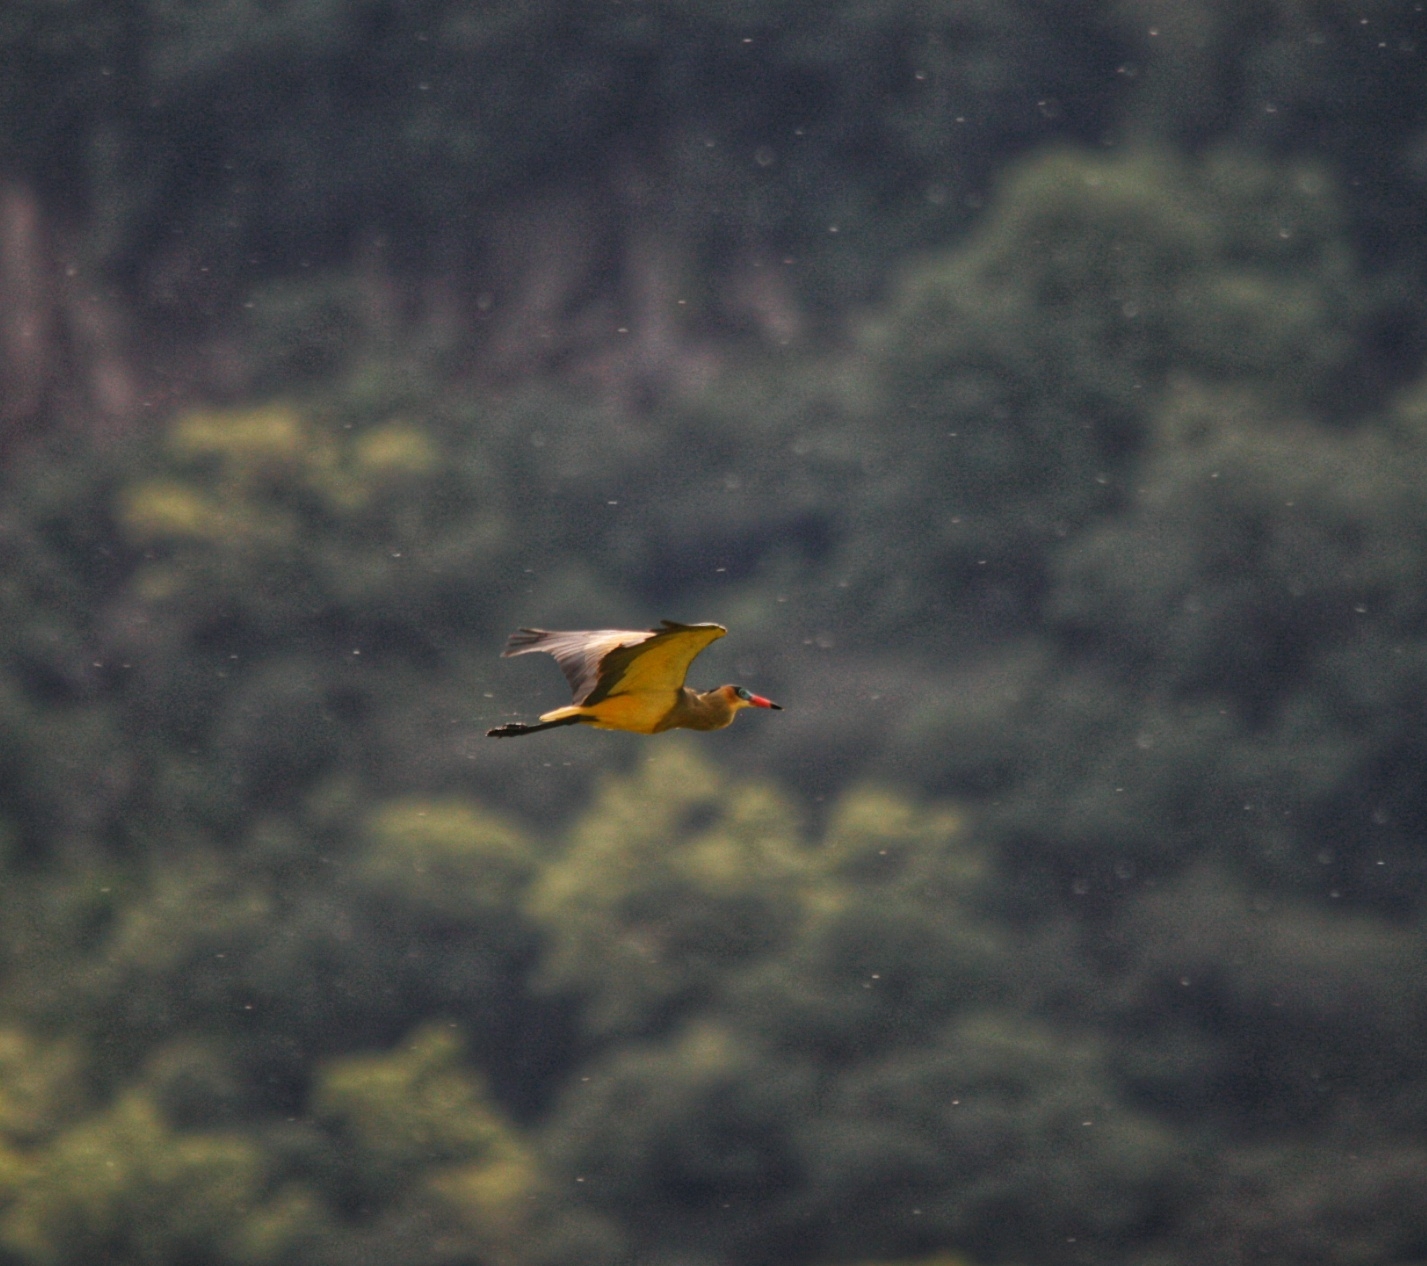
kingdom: Animalia
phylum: Chordata
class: Aves
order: Pelecaniformes
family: Ardeidae
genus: Syrigma
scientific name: Syrigma sibilatrix
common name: Whistling heron
